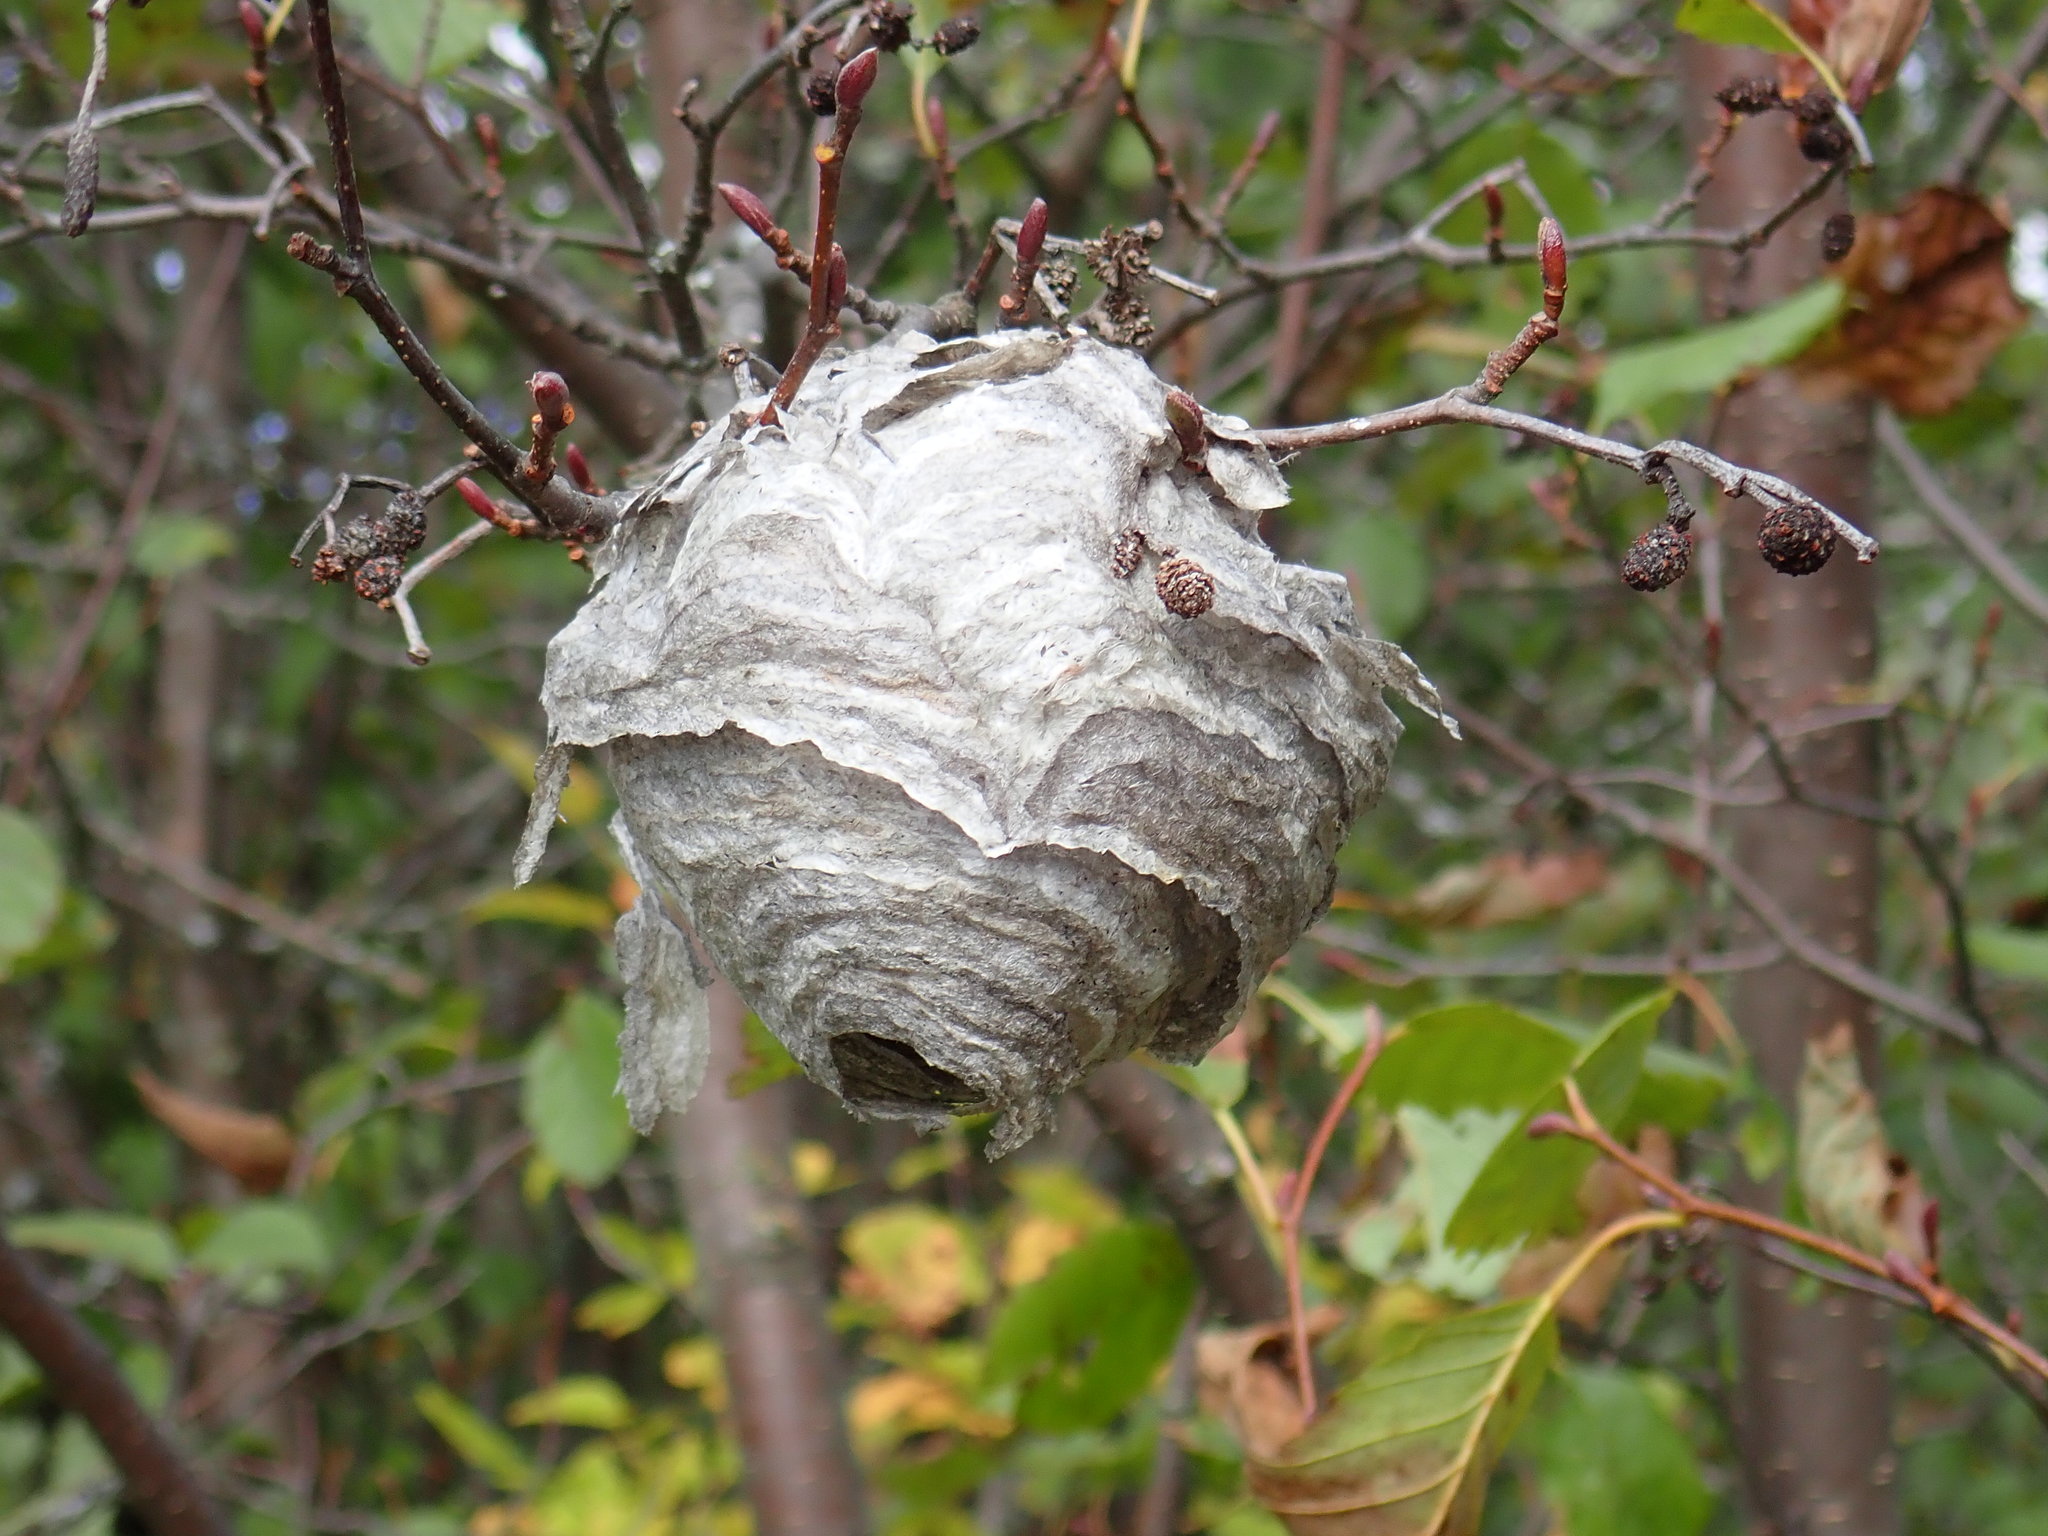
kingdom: Animalia
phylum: Arthropoda
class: Insecta
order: Hymenoptera
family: Vespidae
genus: Dolichovespula
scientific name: Dolichovespula
